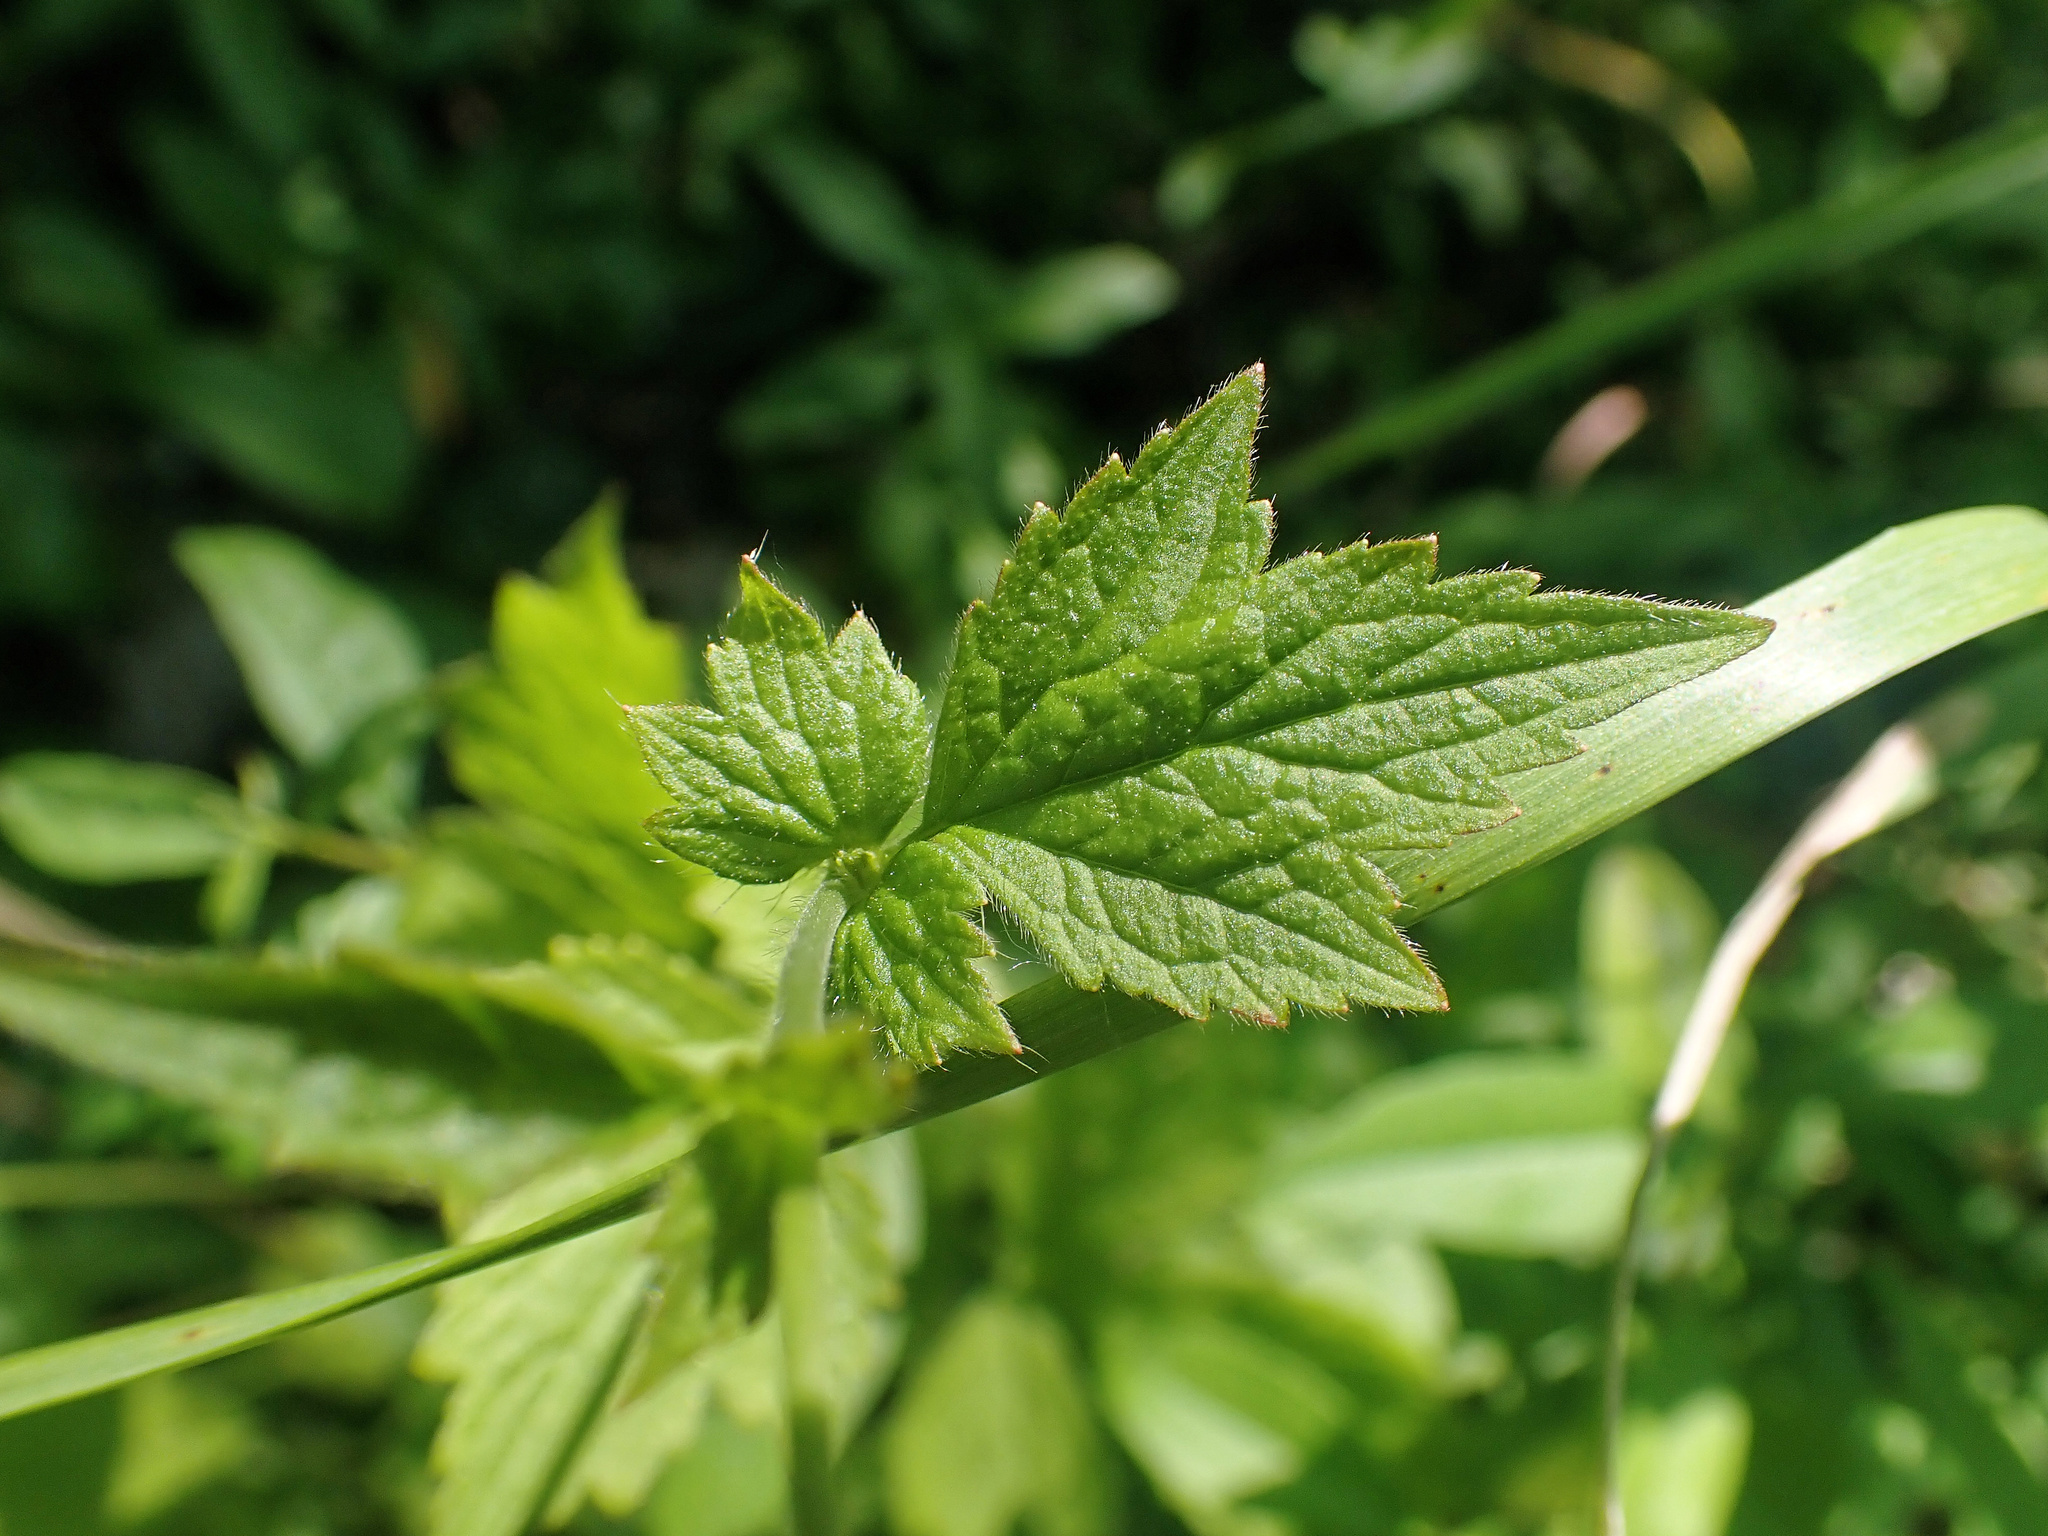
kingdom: Plantae
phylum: Tracheophyta
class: Magnoliopsida
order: Rosales
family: Rosaceae
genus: Geum
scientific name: Geum urbanum
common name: Wood avens
